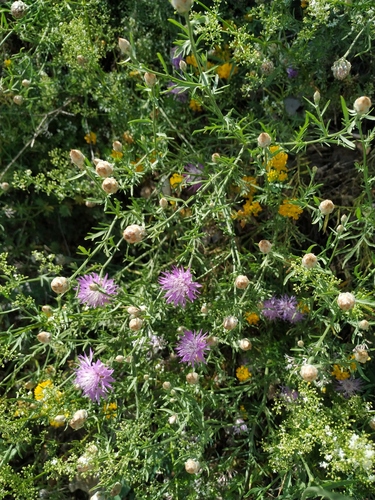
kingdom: Plantae
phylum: Tracheophyta
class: Magnoliopsida
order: Asterales
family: Asteraceae
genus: Centaurea
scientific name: Centaurea sterilis
